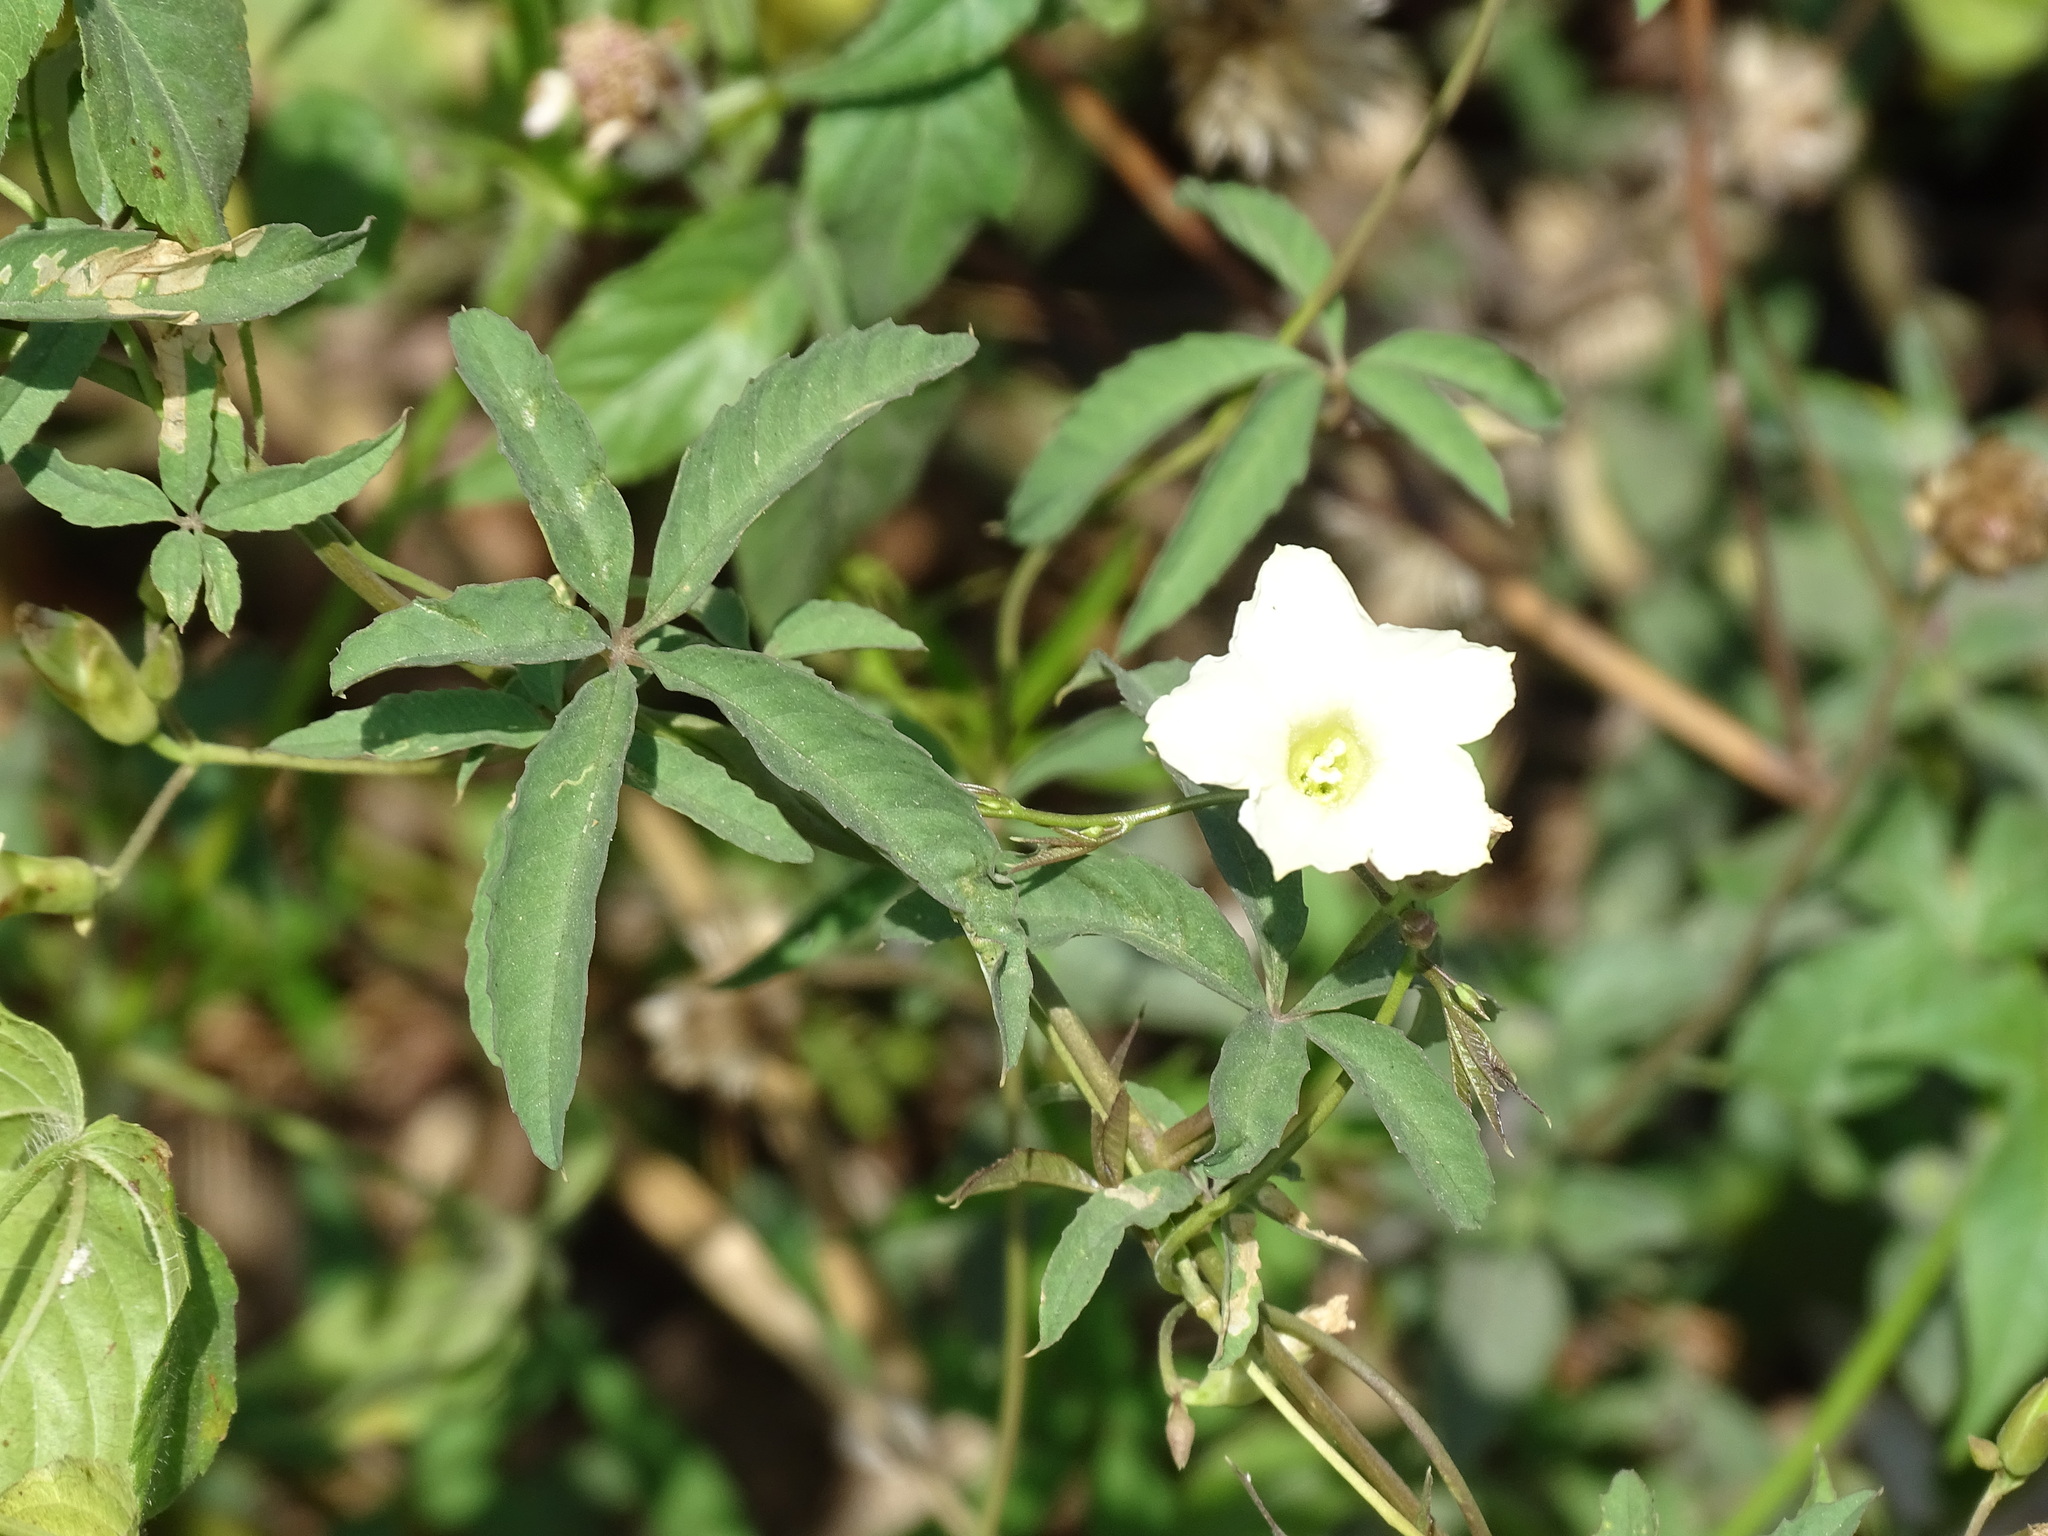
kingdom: Plantae
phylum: Tracheophyta
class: Magnoliopsida
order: Solanales
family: Convolvulaceae
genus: Distimake
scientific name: Distimake quinquefolius
